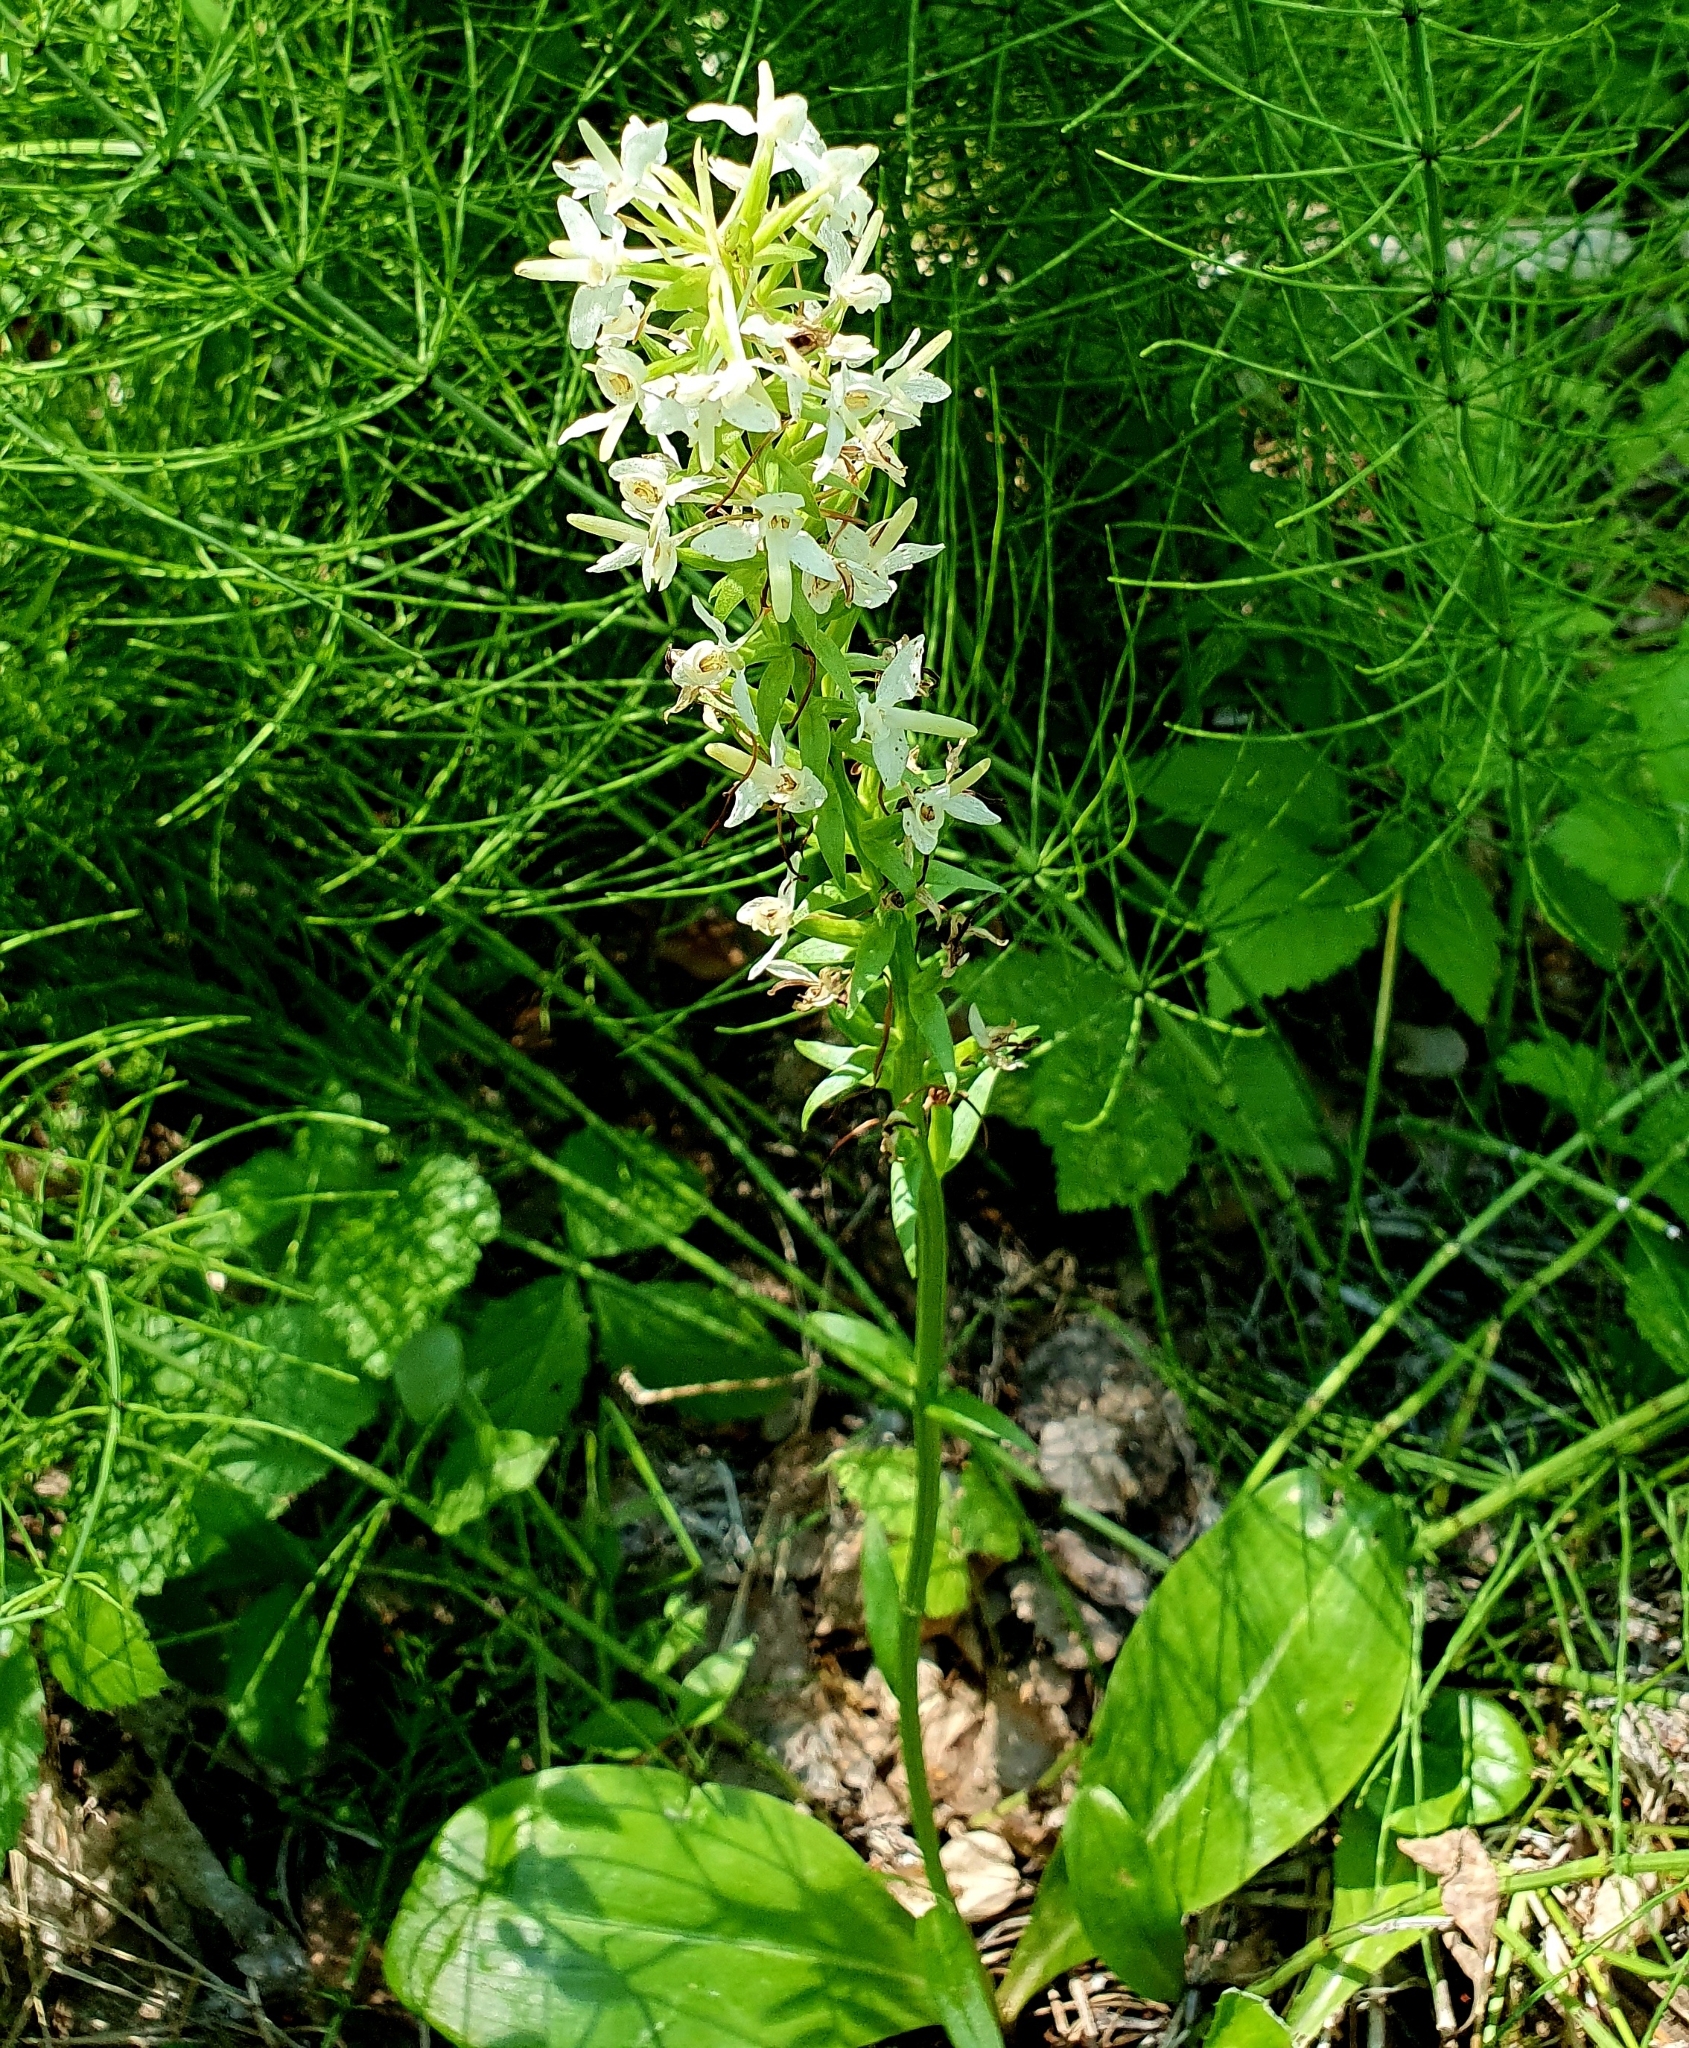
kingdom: Plantae
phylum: Tracheophyta
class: Liliopsida
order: Asparagales
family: Orchidaceae
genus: Platanthera
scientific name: Platanthera bifolia
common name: Lesser butterfly-orchid
